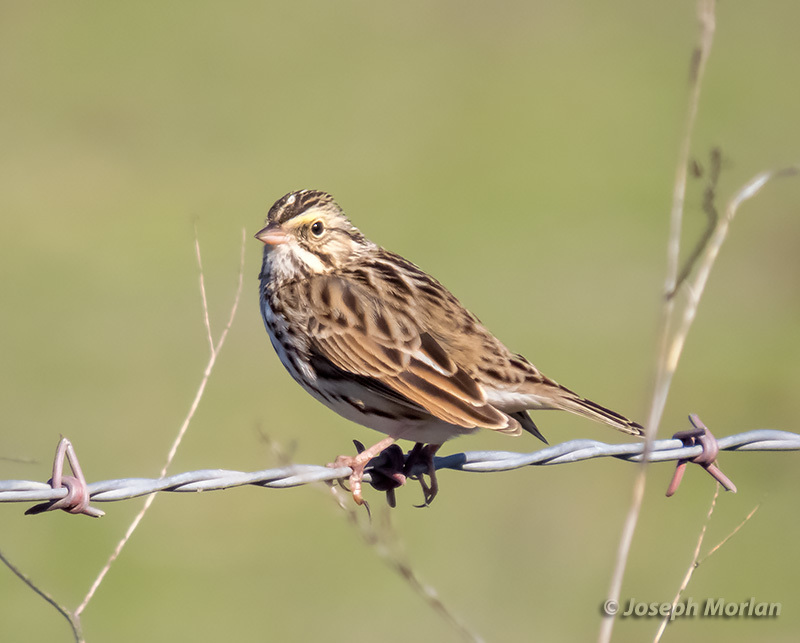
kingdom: Animalia
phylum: Chordata
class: Aves
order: Passeriformes
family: Passerellidae
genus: Passerculus
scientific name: Passerculus sandwichensis
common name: Savannah sparrow
